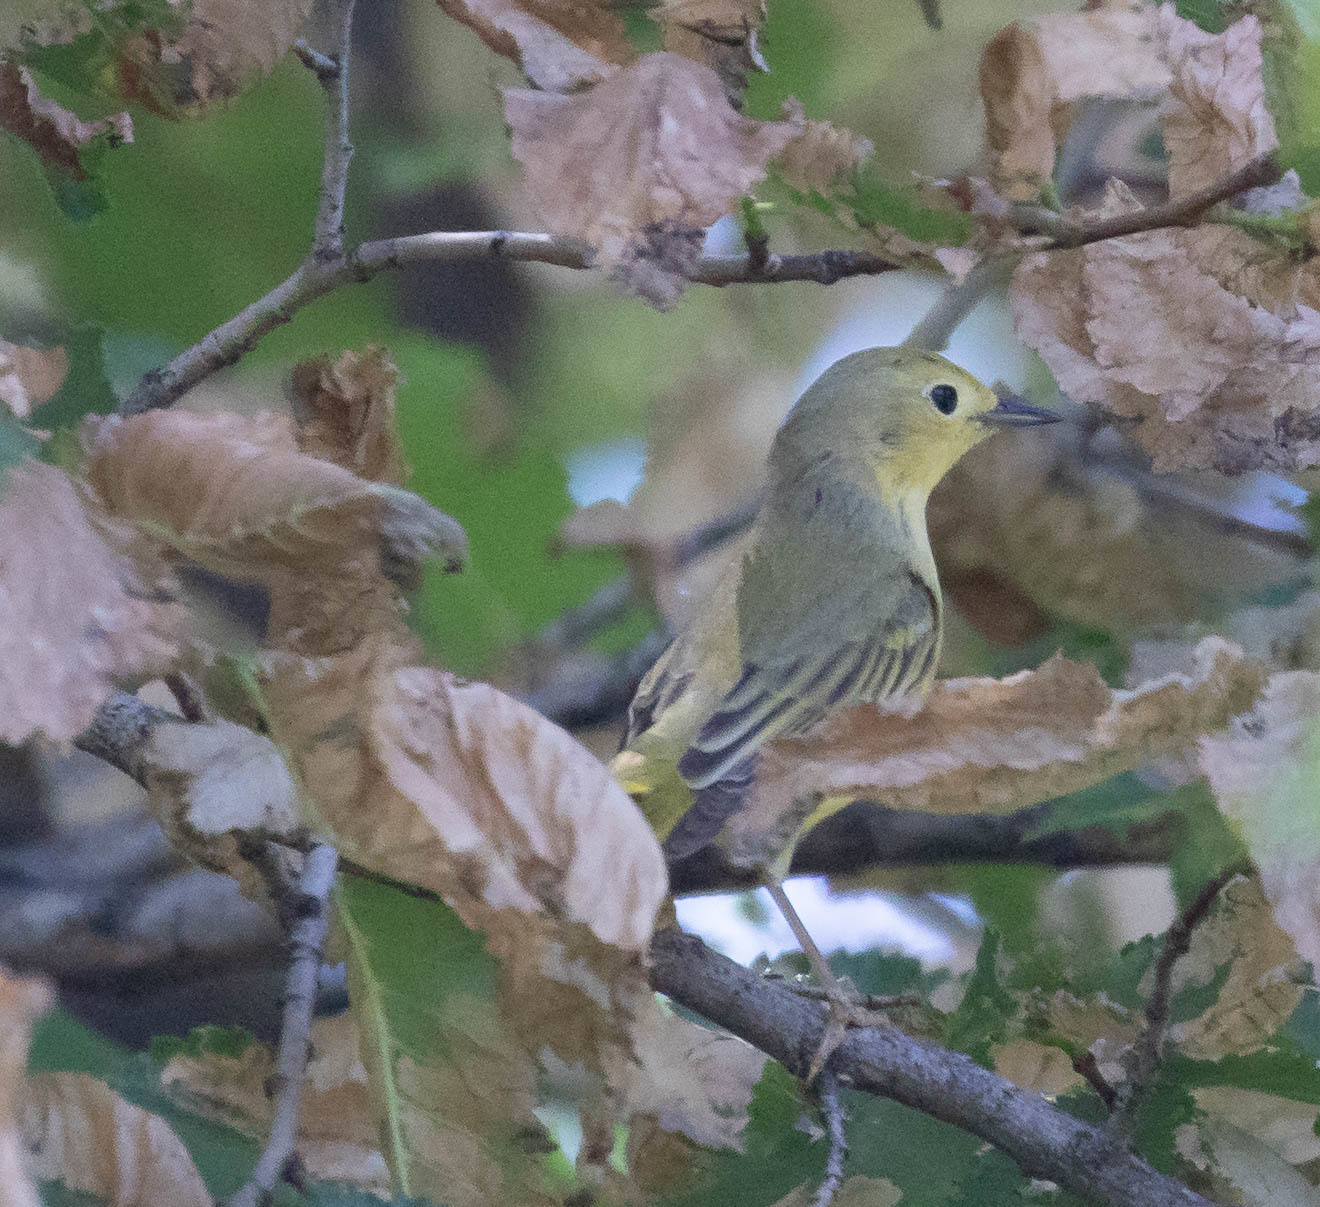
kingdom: Animalia
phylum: Chordata
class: Aves
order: Passeriformes
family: Parulidae
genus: Setophaga
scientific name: Setophaga petechia
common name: Yellow warbler
